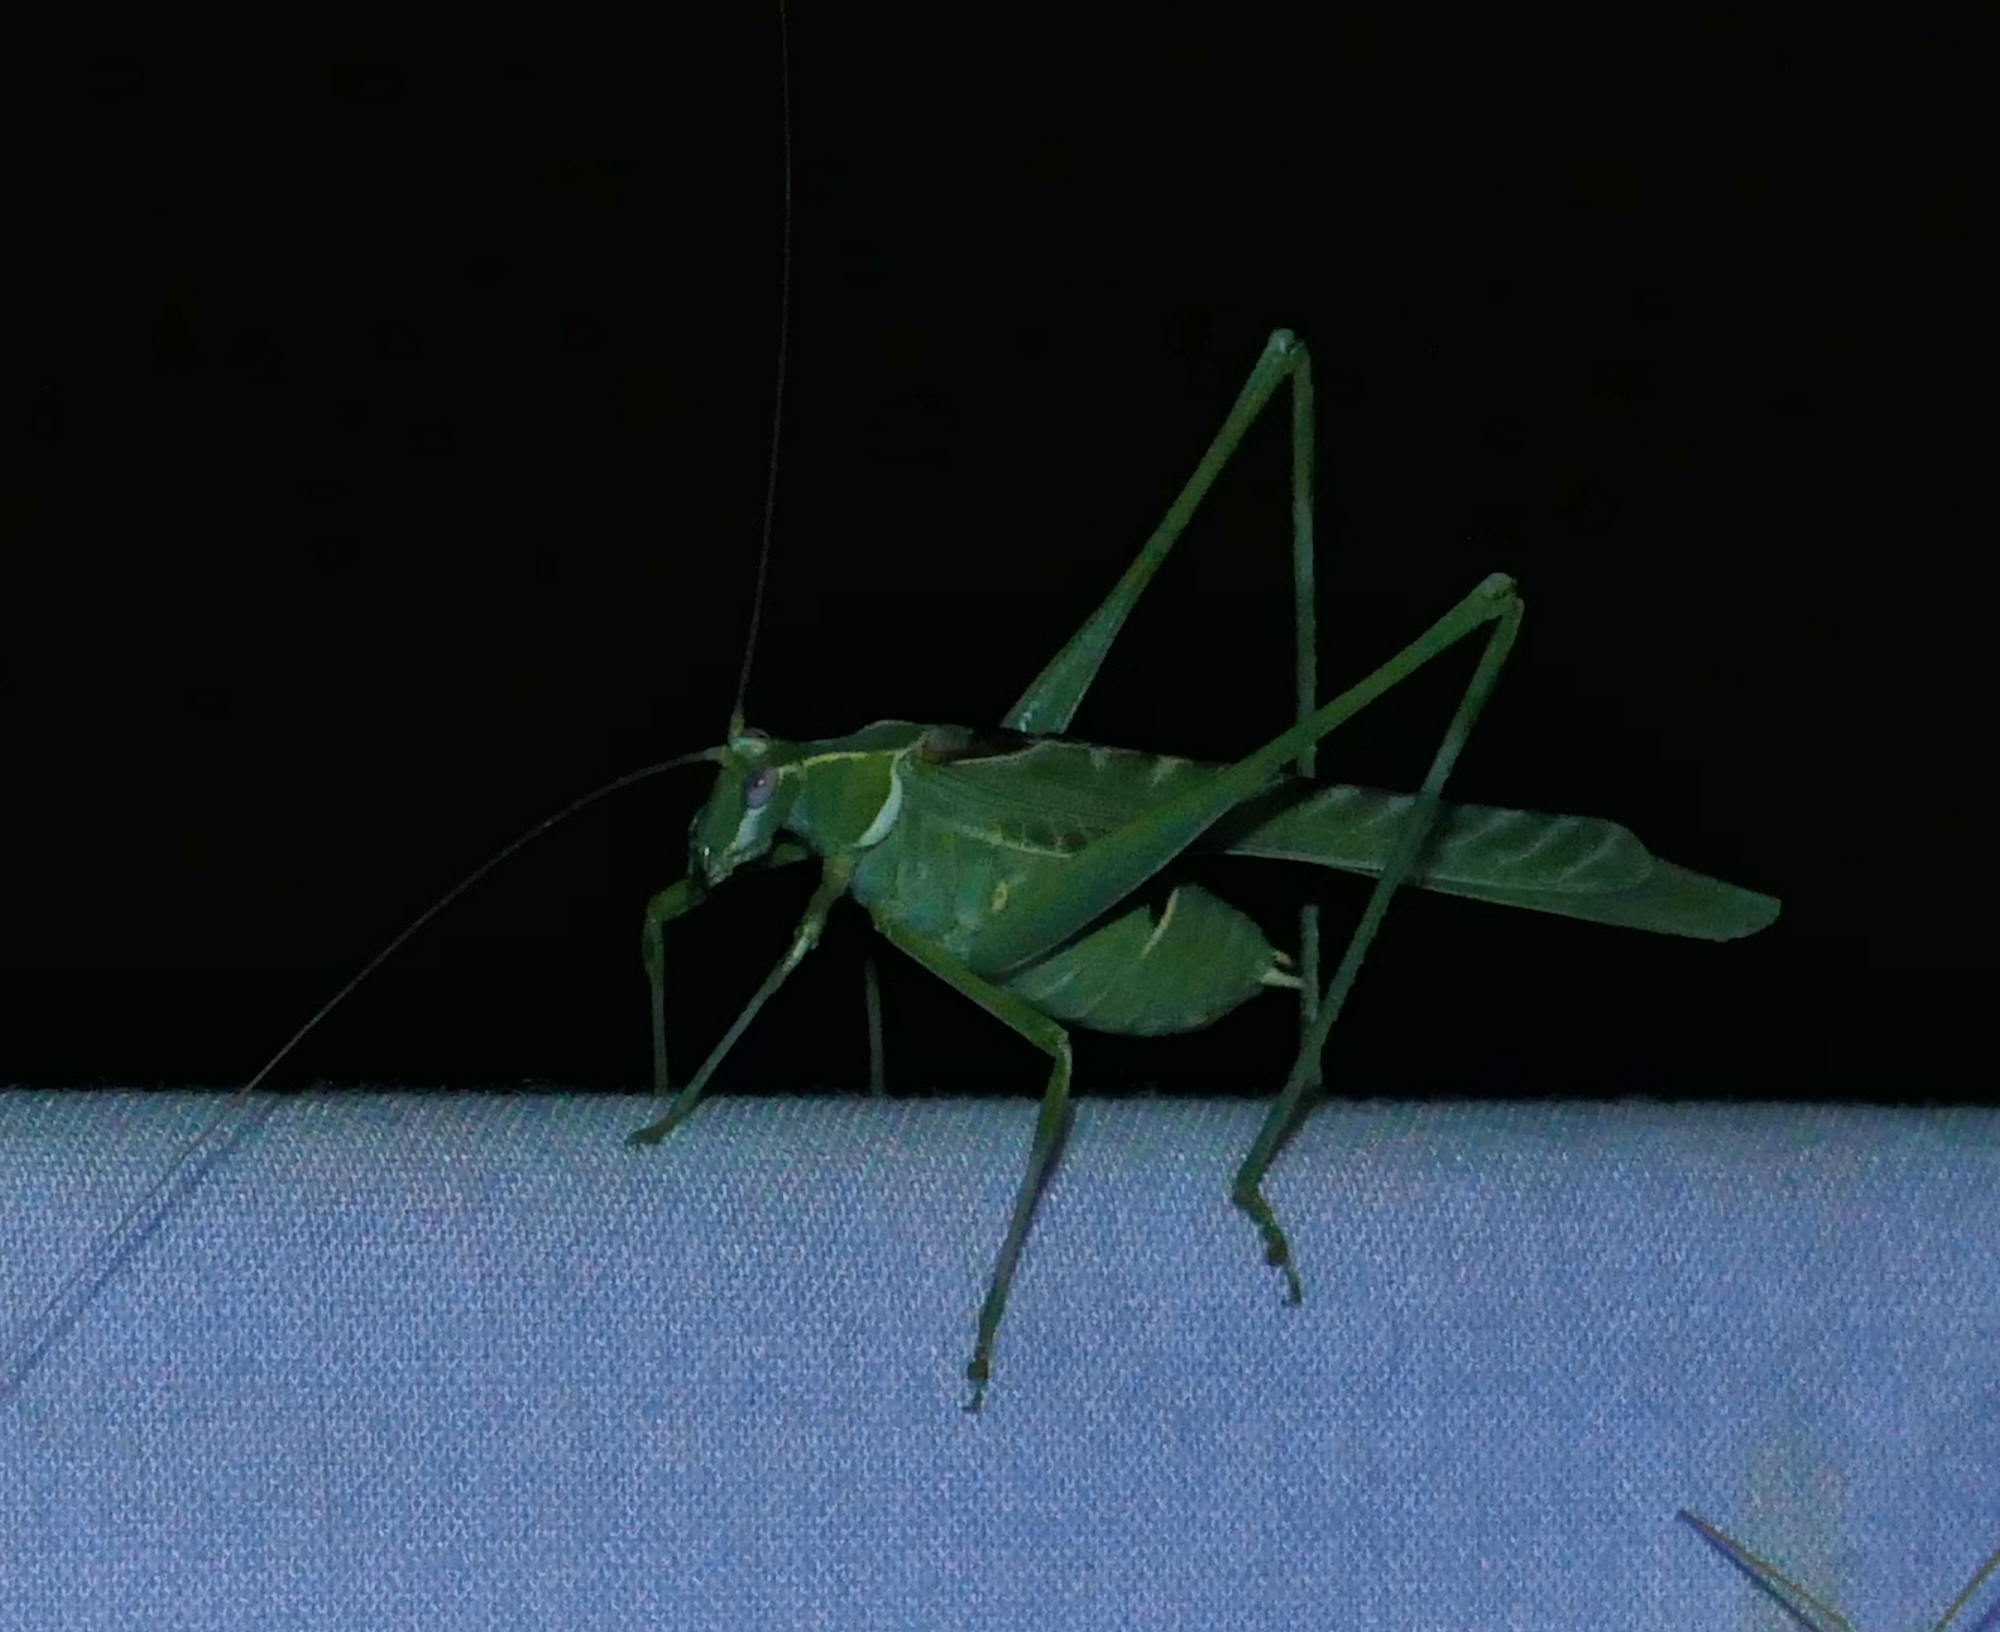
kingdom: Animalia
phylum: Arthropoda
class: Insecta
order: Orthoptera
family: Tettigoniidae
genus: Insara
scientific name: Insara elegans
